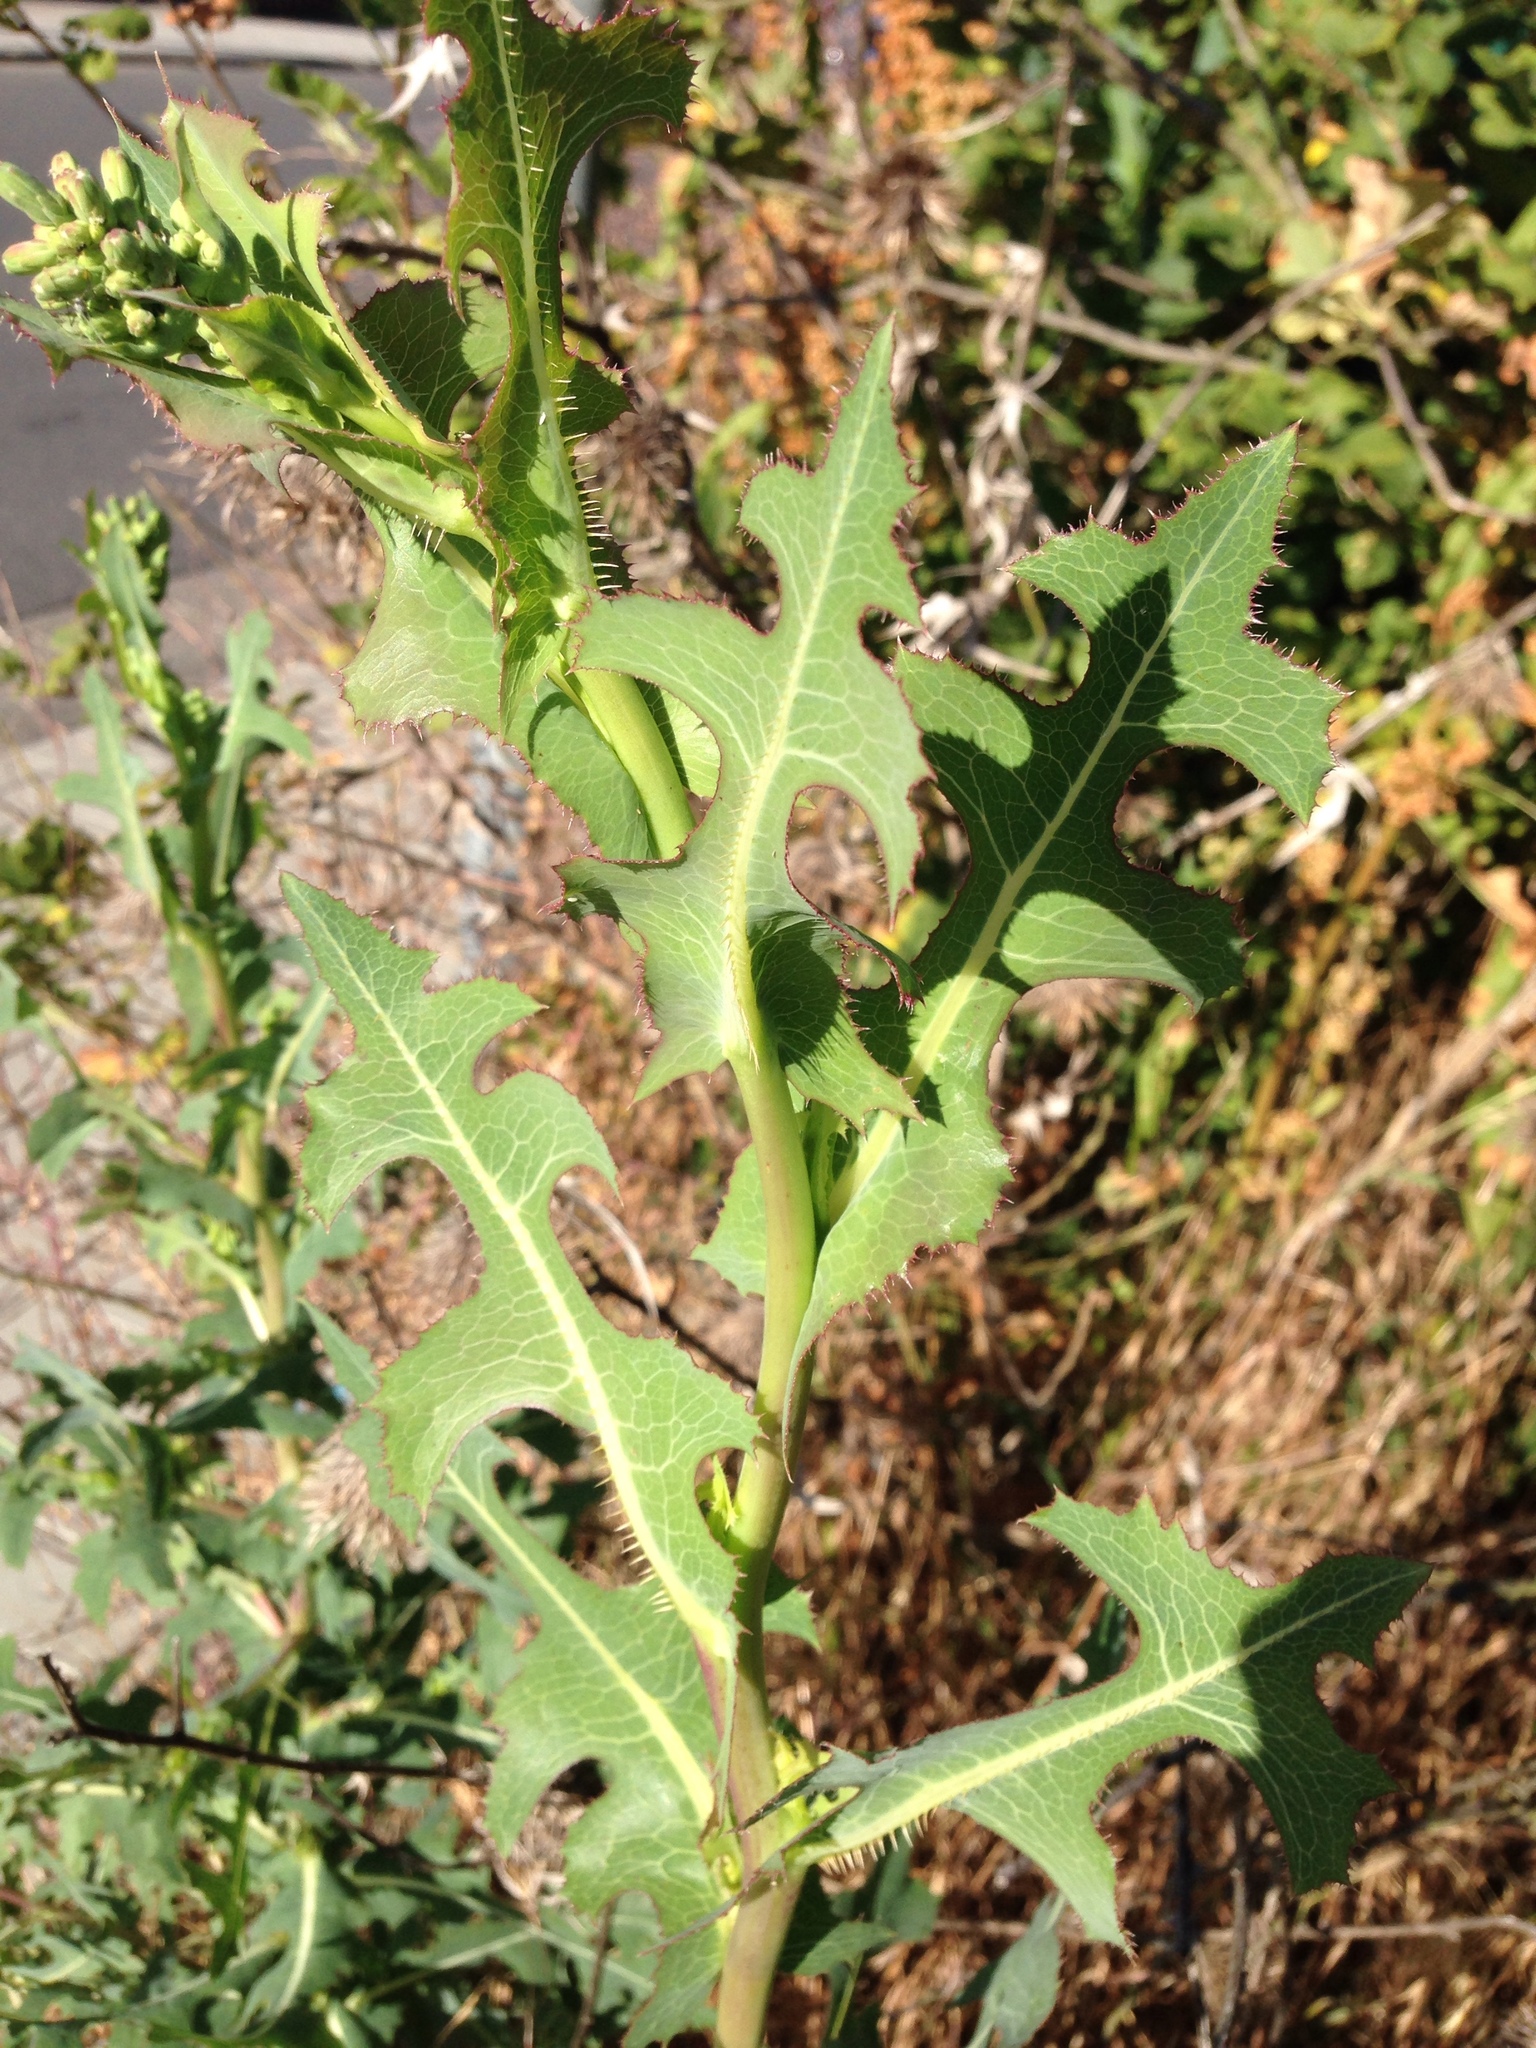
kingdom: Plantae
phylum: Tracheophyta
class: Magnoliopsida
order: Asterales
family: Asteraceae
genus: Lactuca
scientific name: Lactuca serriola
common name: Prickly lettuce
